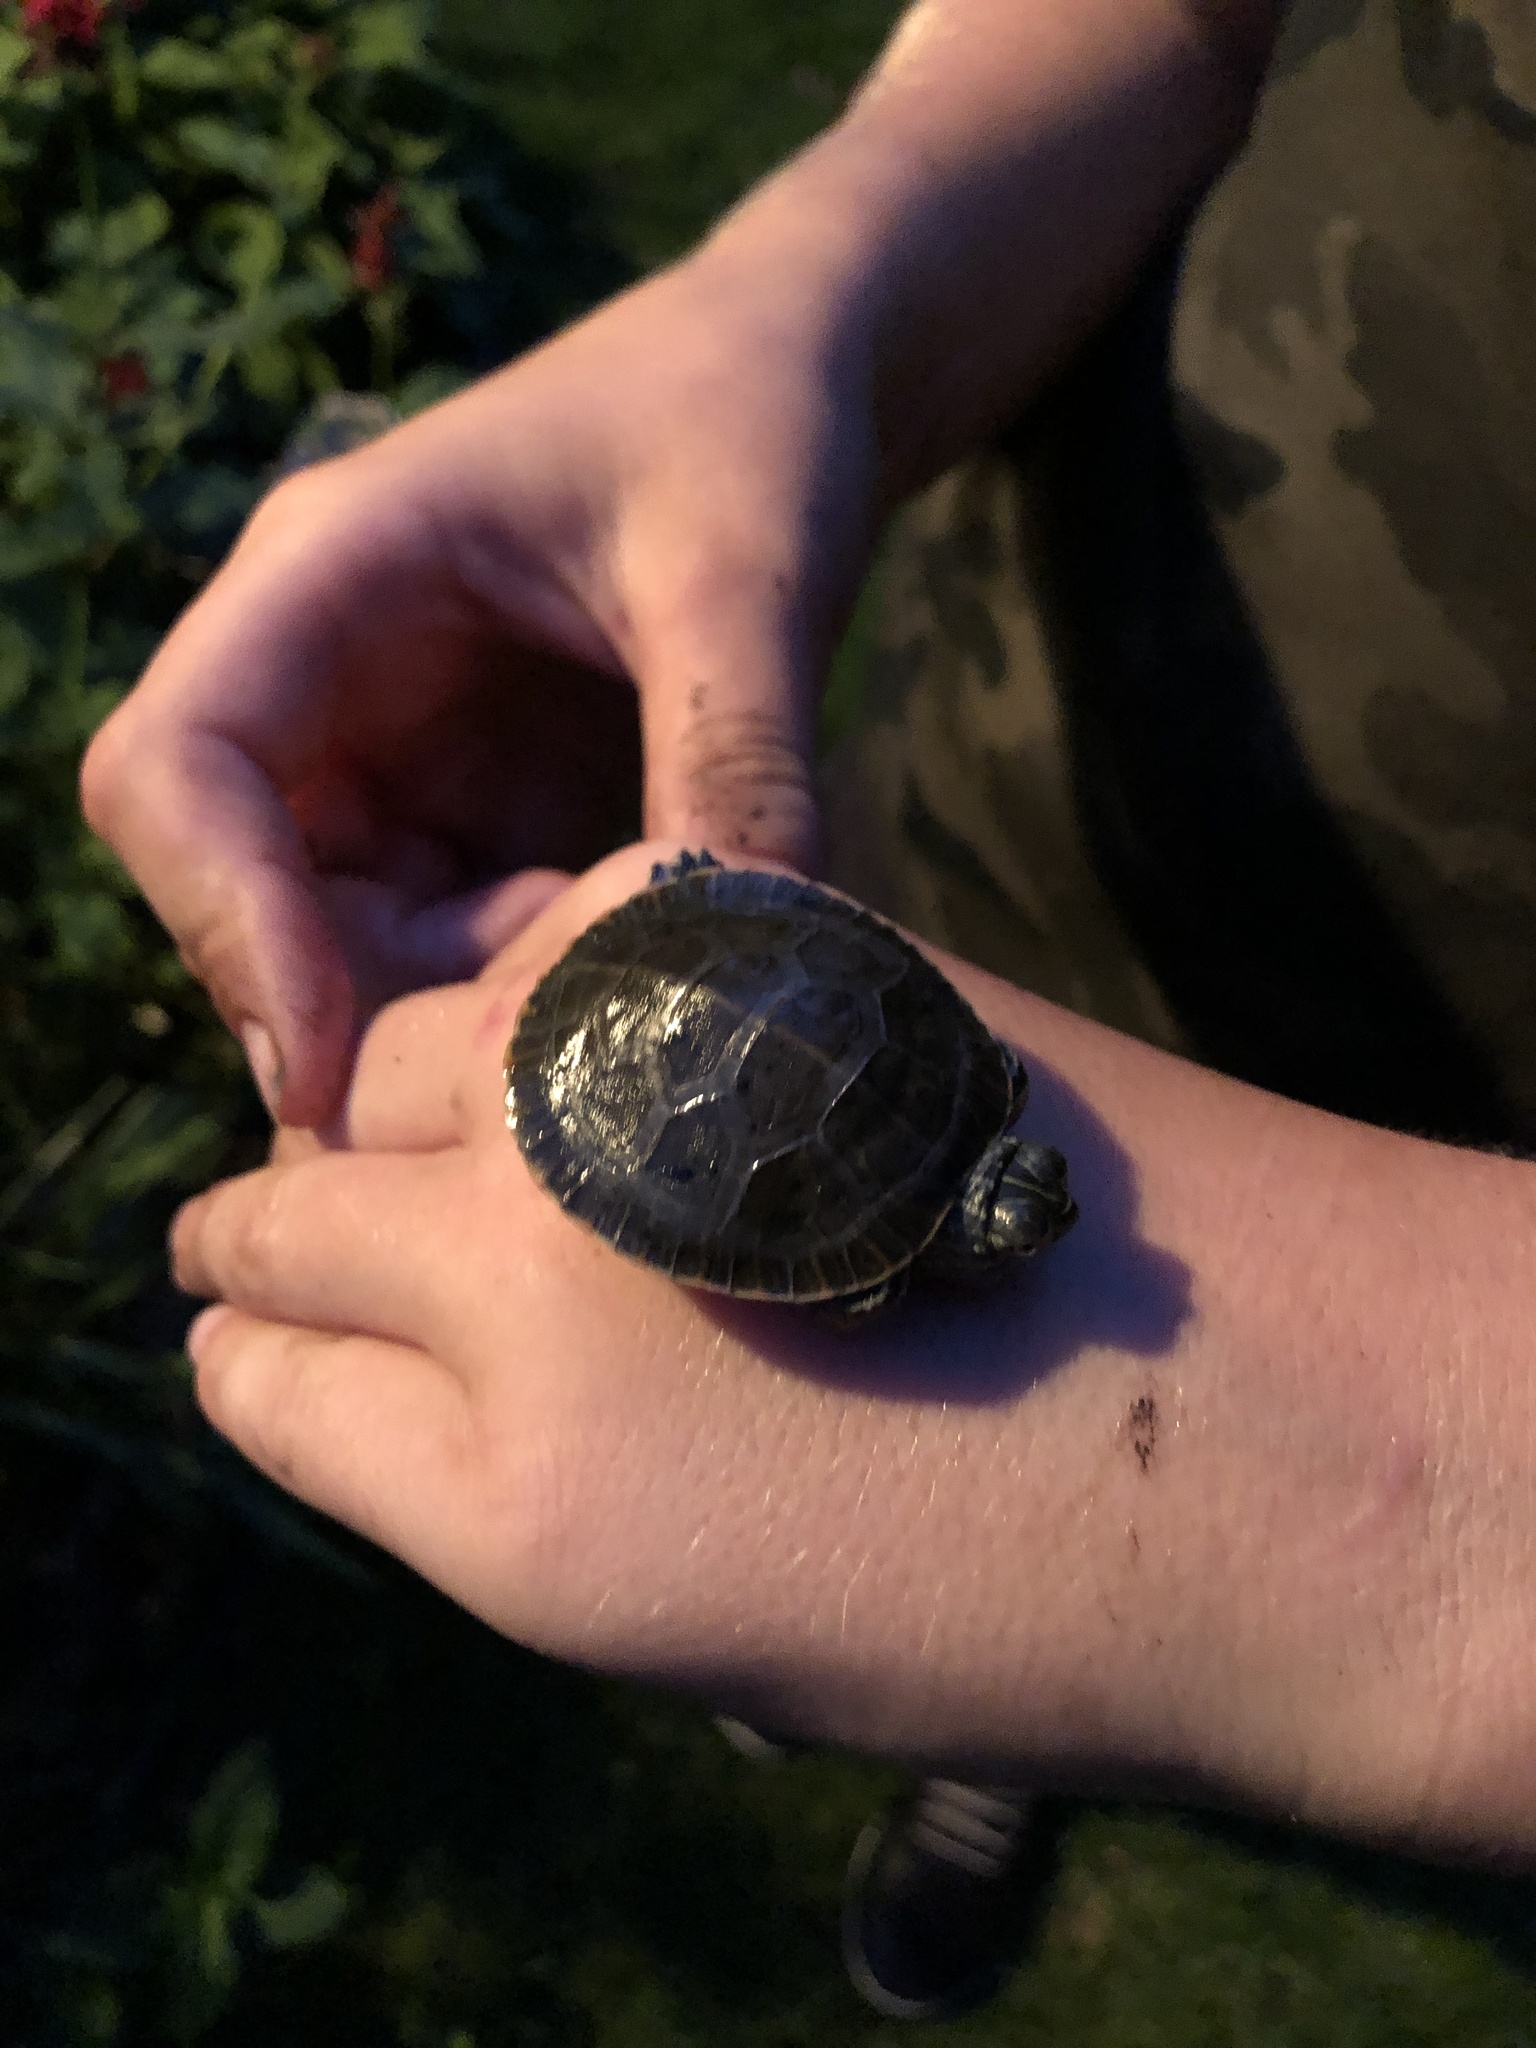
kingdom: Animalia
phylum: Chordata
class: Testudines
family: Emydidae
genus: Chrysemys
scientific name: Chrysemys picta
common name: Painted turtle
